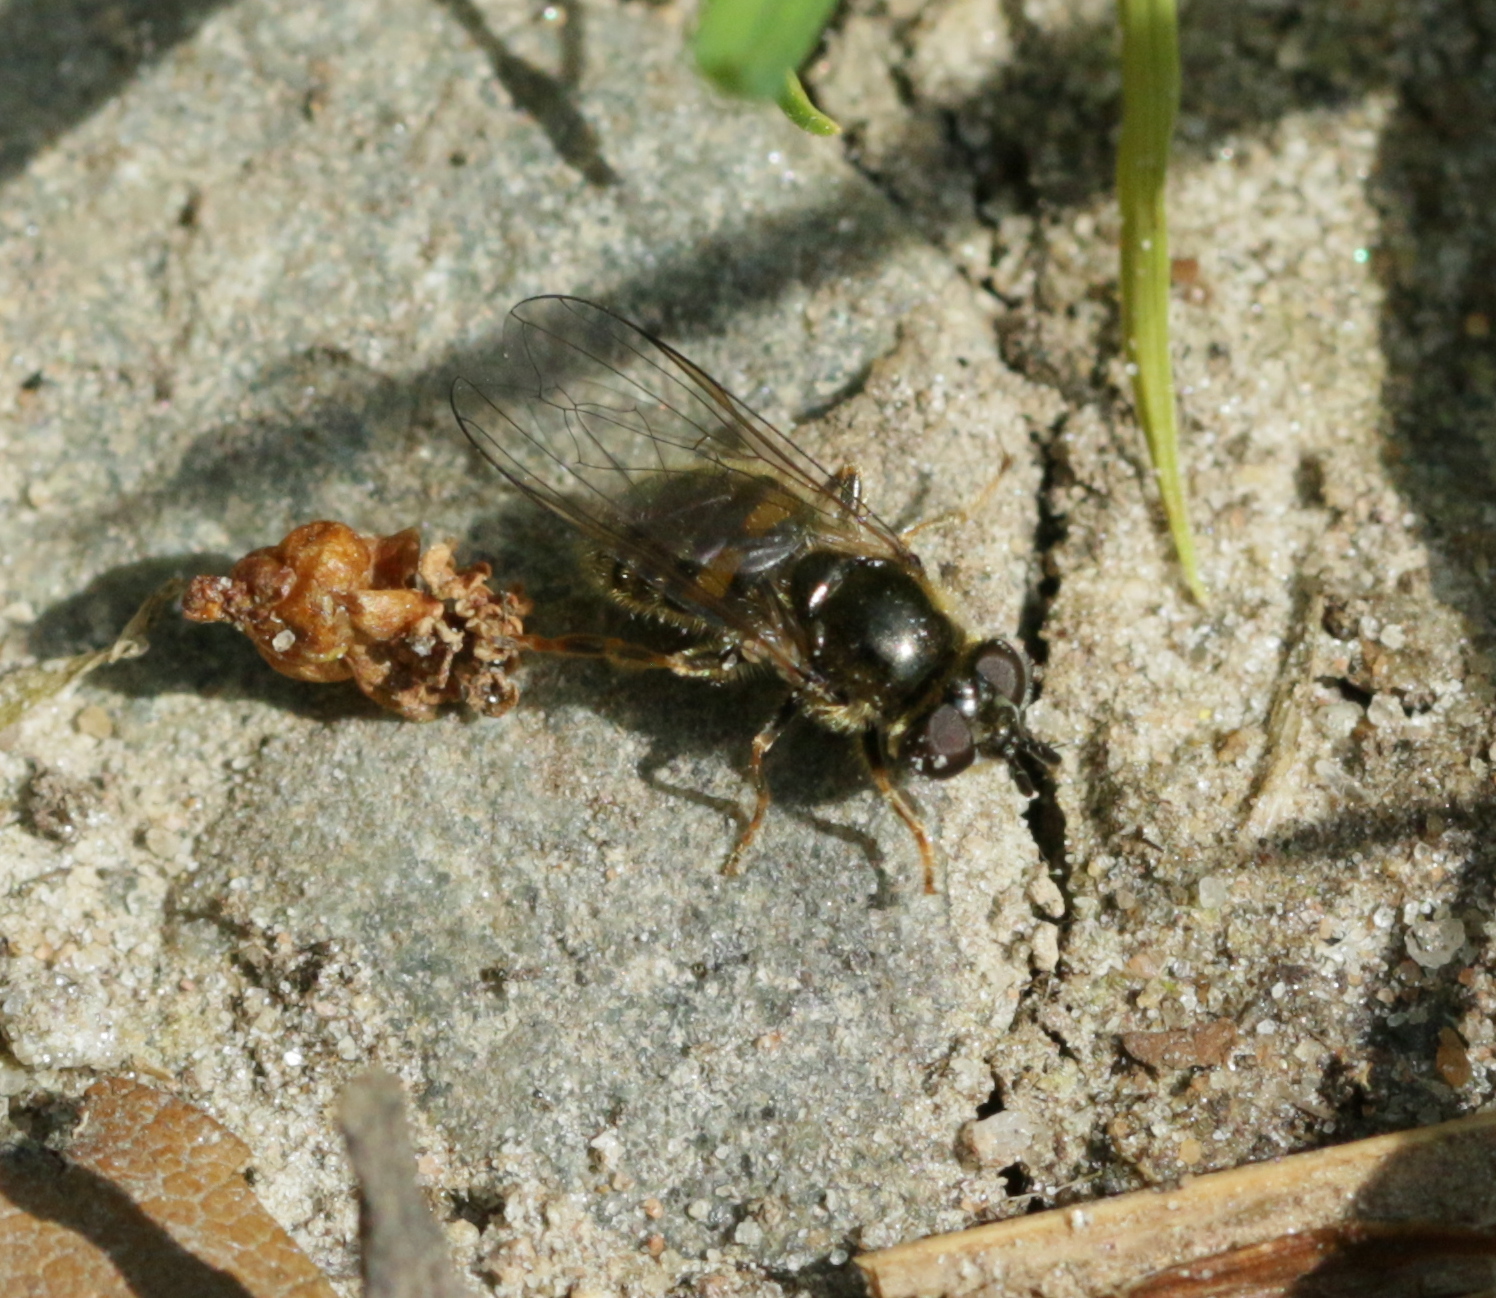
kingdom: Animalia
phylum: Arthropoda
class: Insecta
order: Diptera
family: Syrphidae
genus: Pipiza
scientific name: Pipiza luteitarsis
